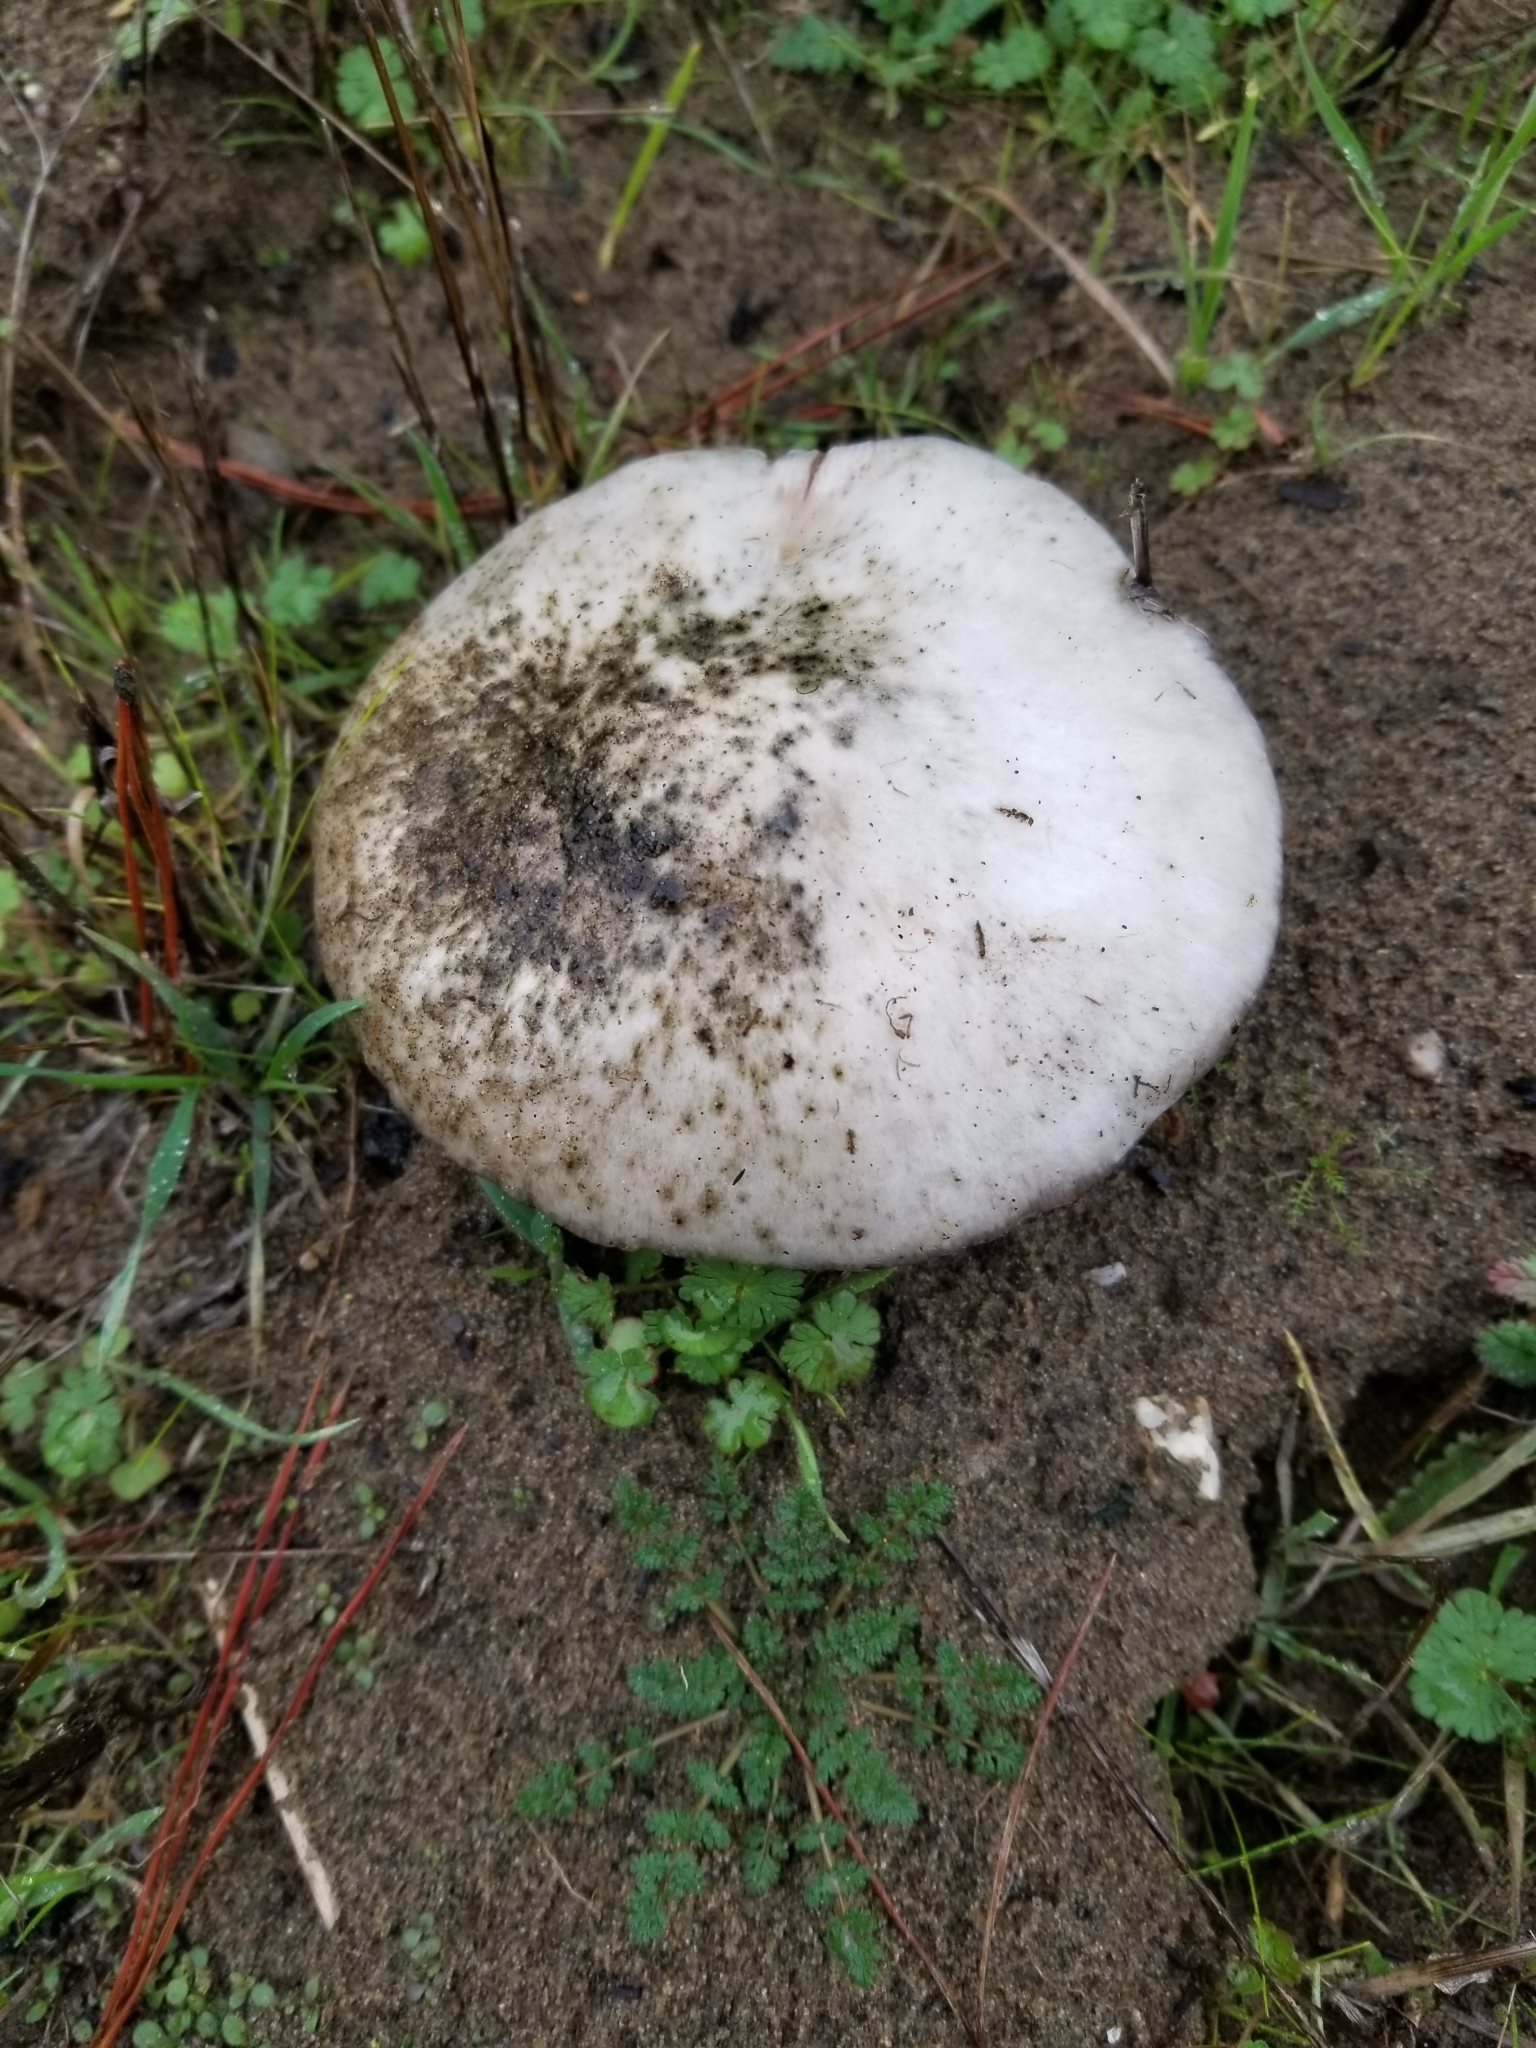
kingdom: Fungi
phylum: Basidiomycota
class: Agaricomycetes
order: Agaricales
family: Pluteaceae
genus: Volvopluteus
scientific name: Volvopluteus gloiocephalus
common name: Stubble rosegill
